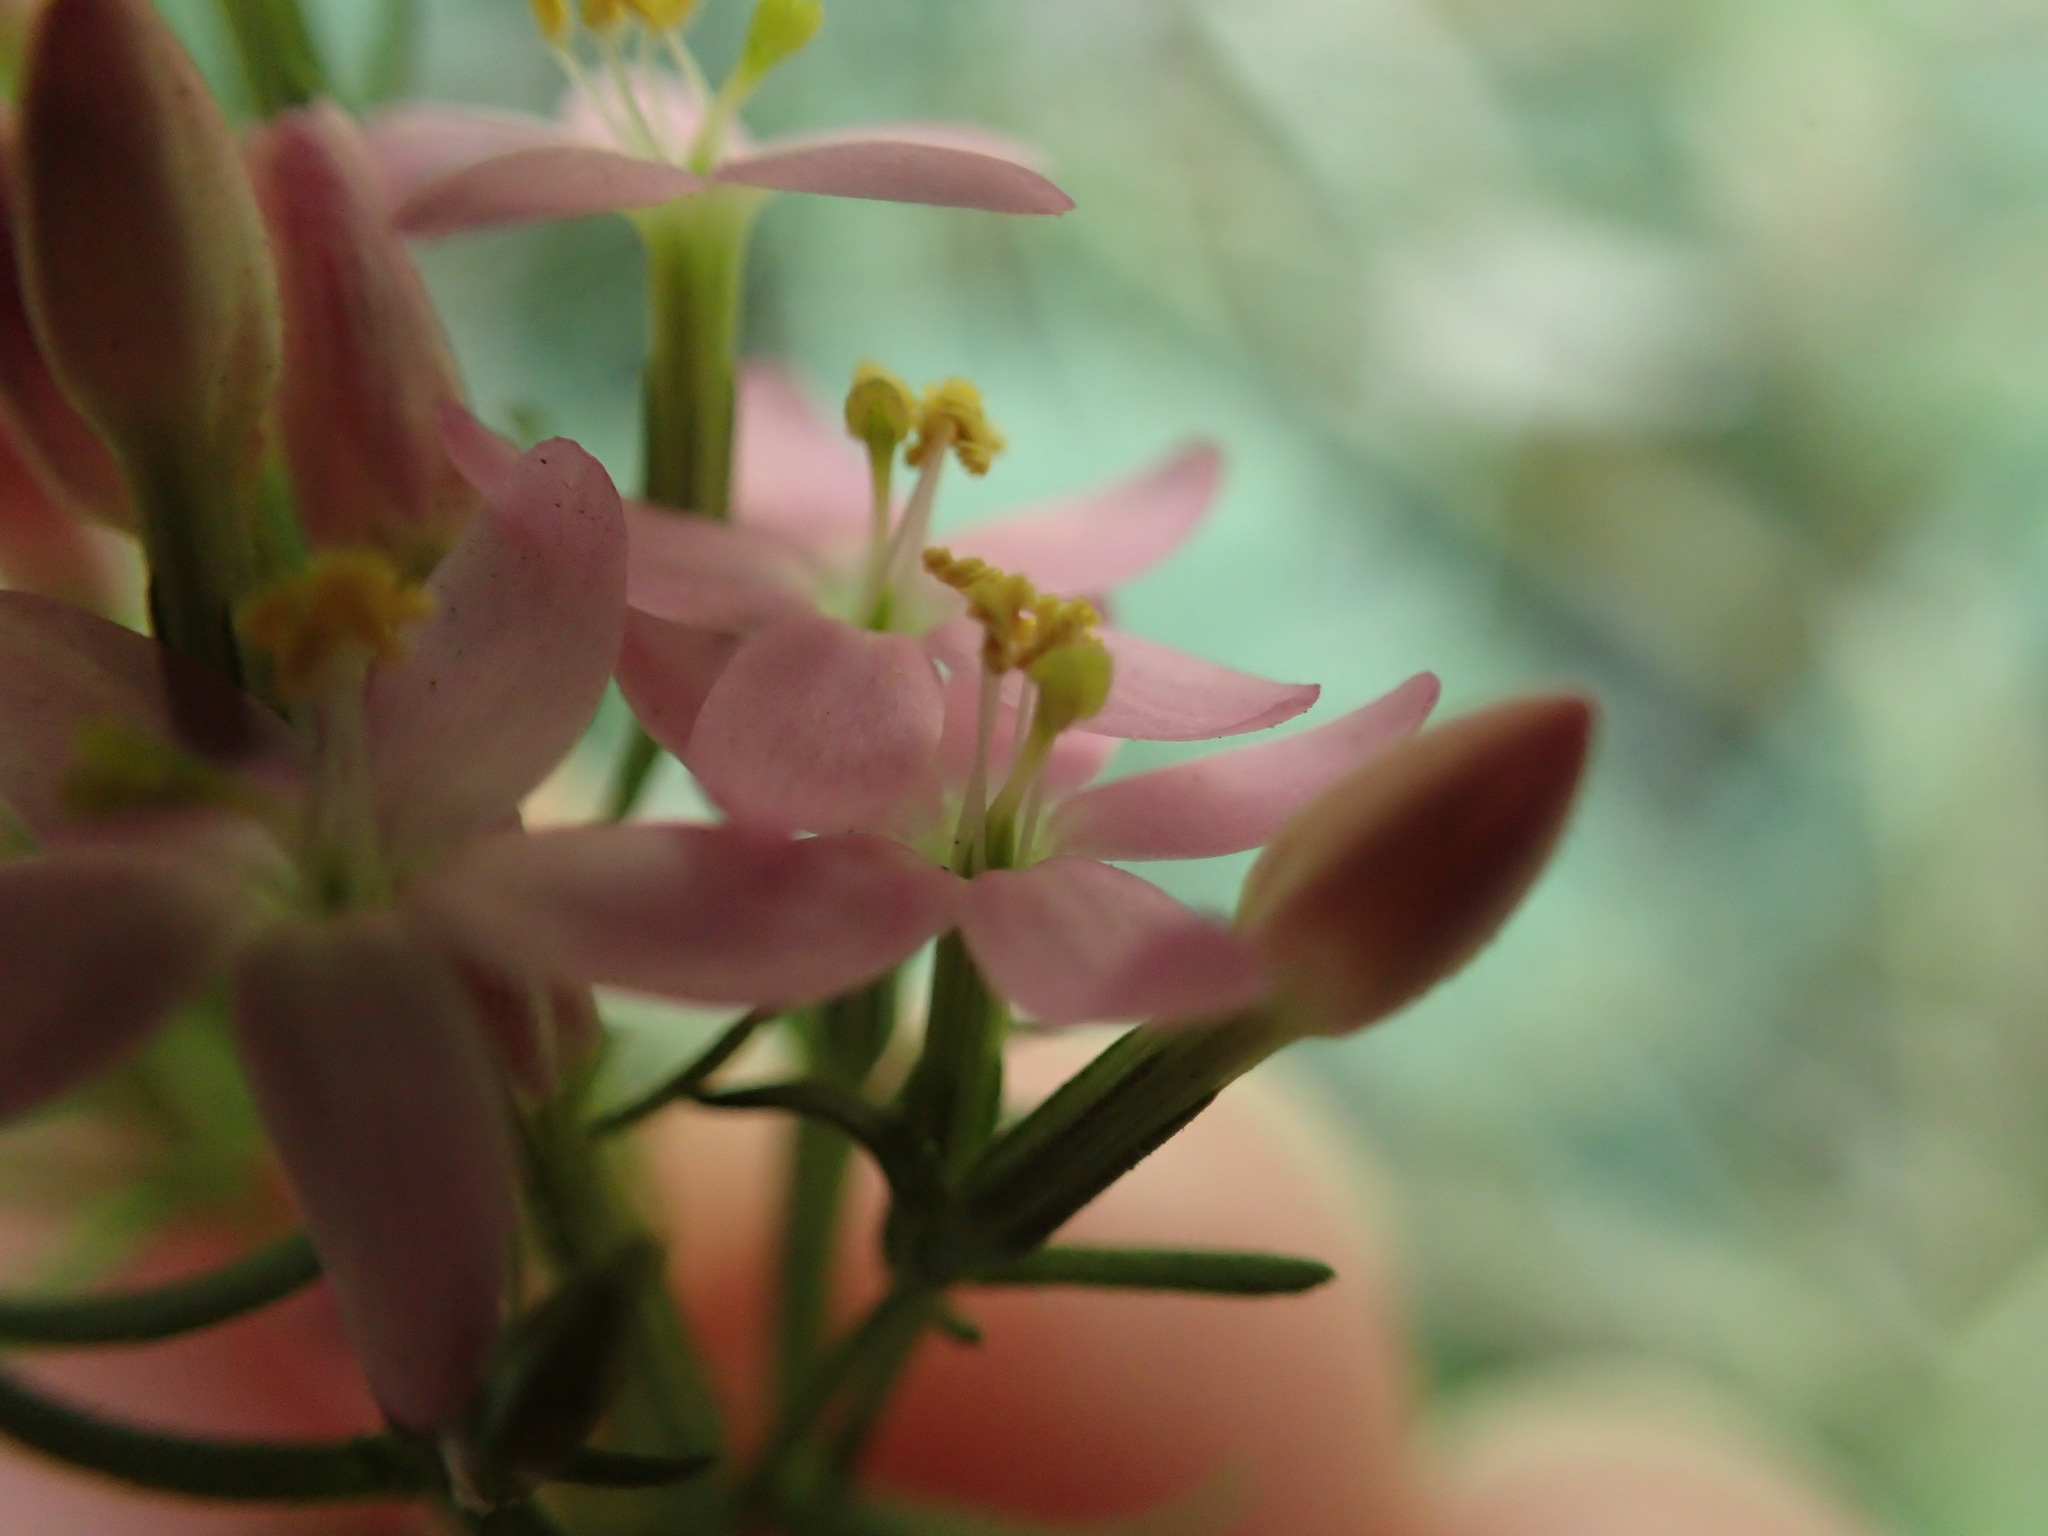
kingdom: Plantae
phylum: Tracheophyta
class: Magnoliopsida
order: Gentianales
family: Gentianaceae
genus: Centaurium
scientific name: Centaurium erythraea
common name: Common centaury
